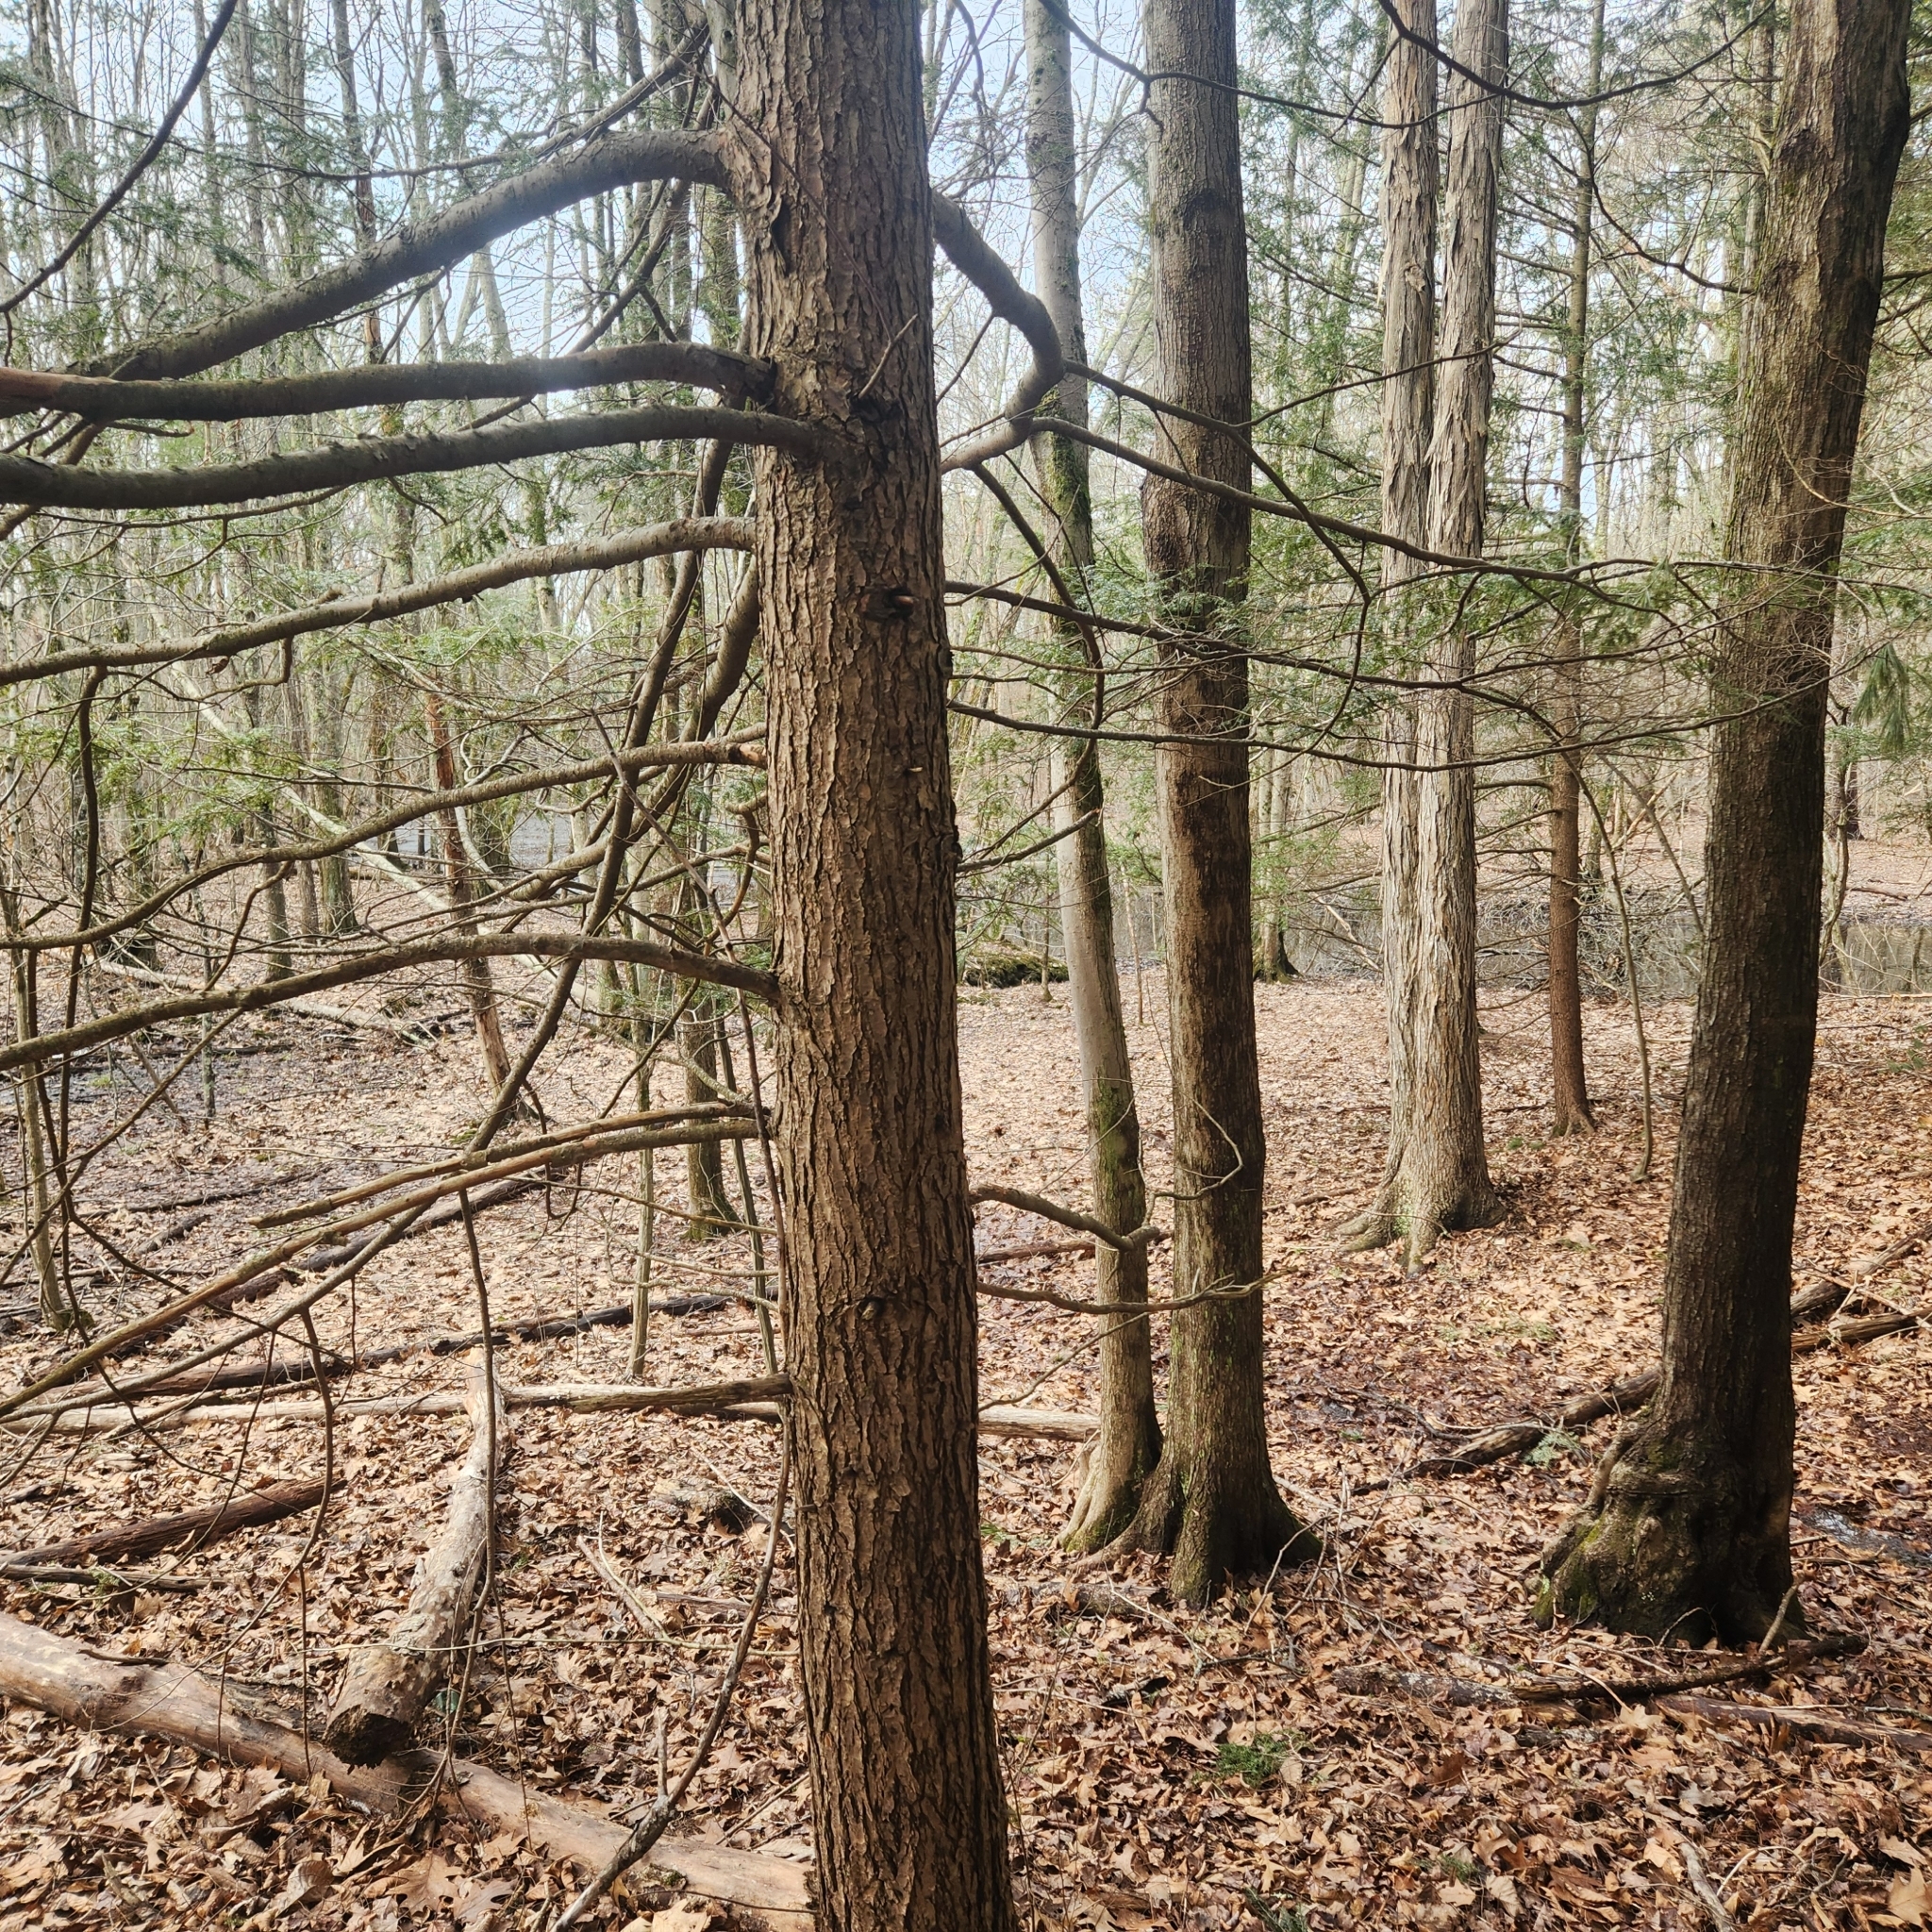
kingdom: Plantae
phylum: Tracheophyta
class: Pinopsida
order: Pinales
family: Pinaceae
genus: Tsuga
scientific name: Tsuga canadensis
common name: Eastern hemlock
